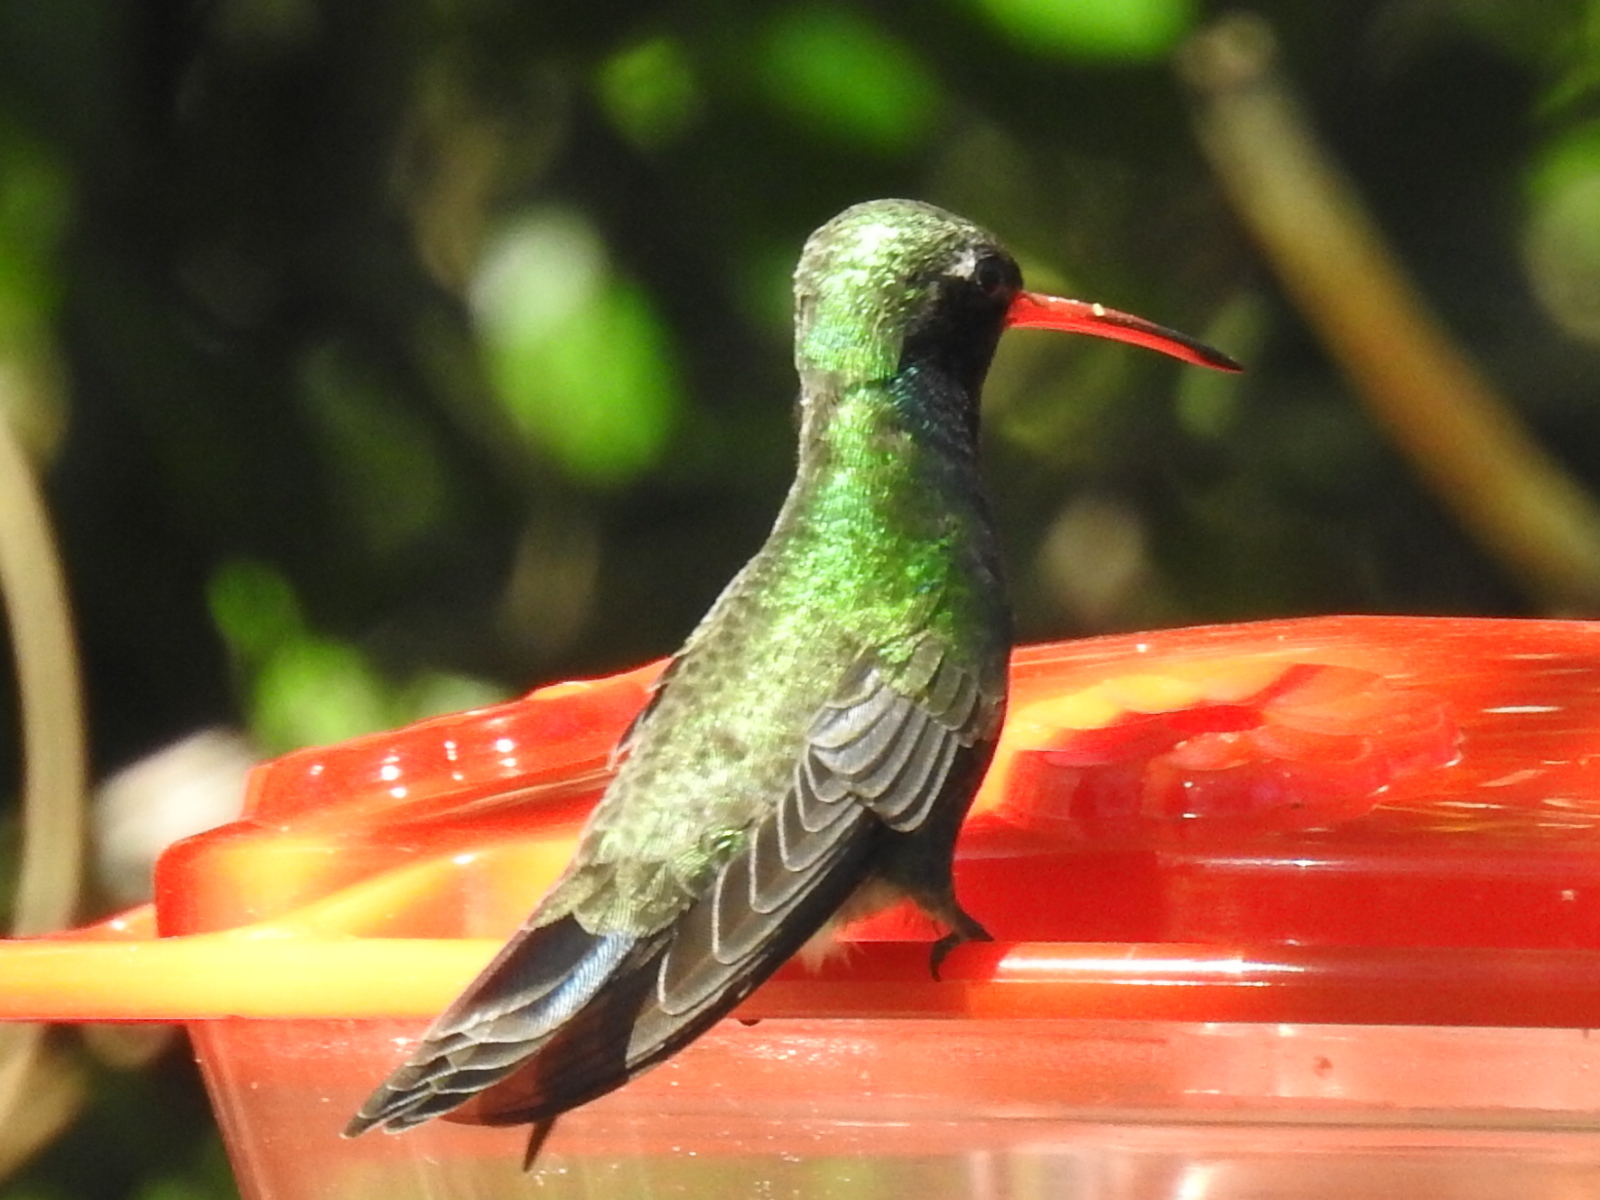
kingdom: Animalia
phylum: Chordata
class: Aves
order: Apodiformes
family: Trochilidae
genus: Cynanthus
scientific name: Cynanthus latirostris
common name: Broad-billed hummingbird
